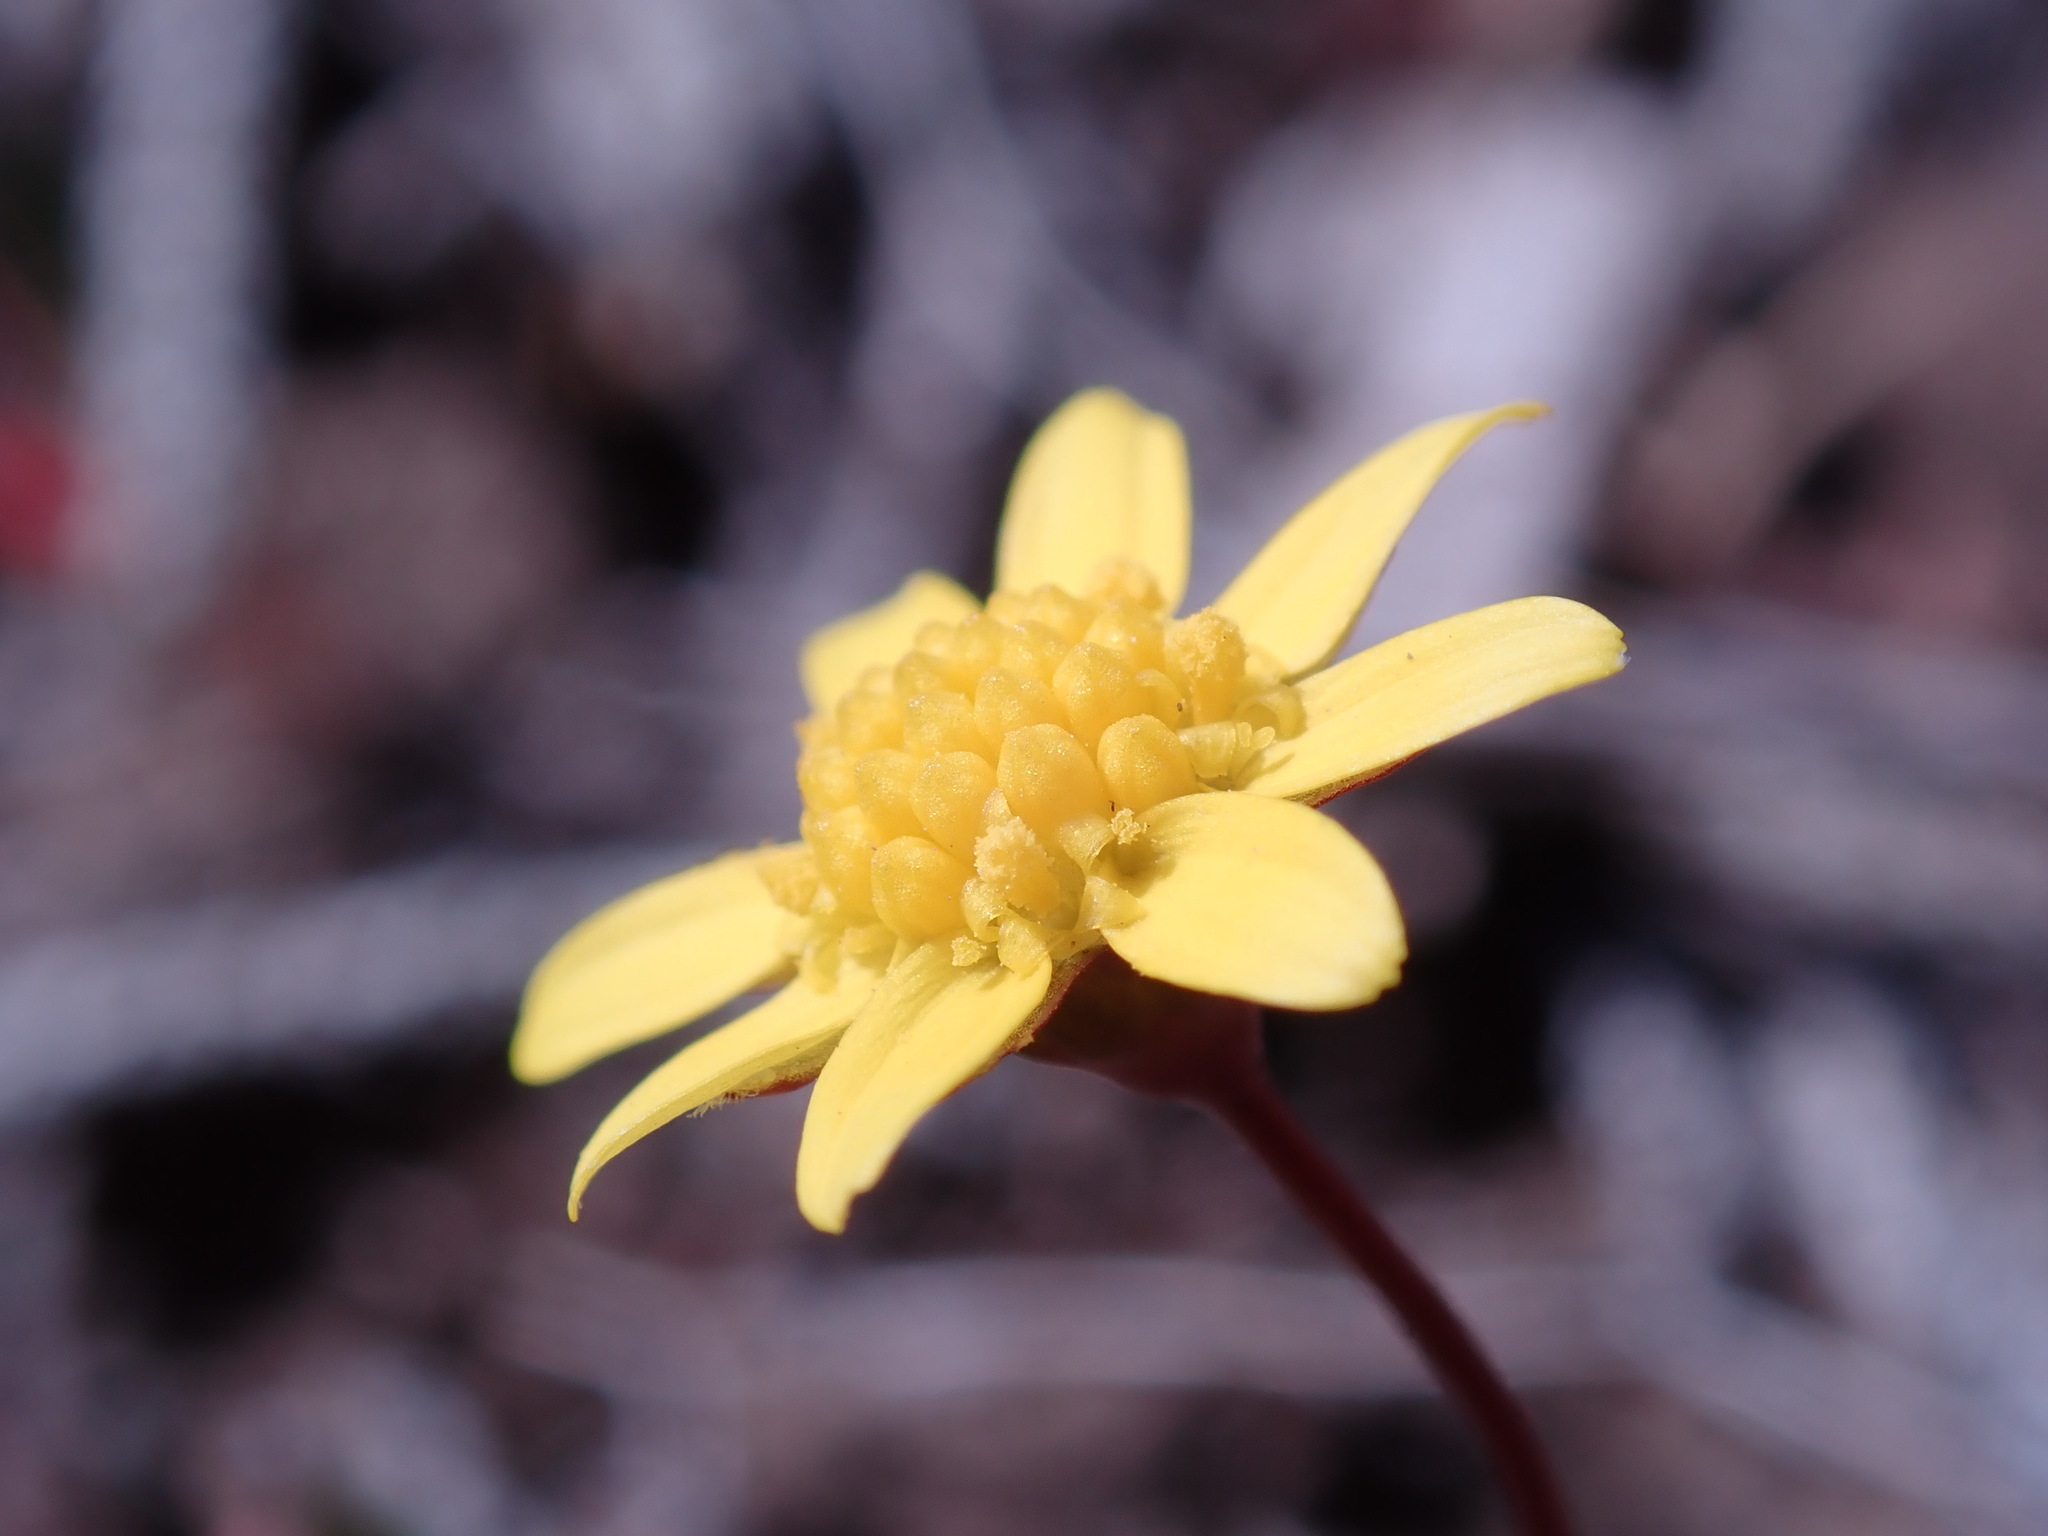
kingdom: Plantae
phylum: Tracheophyta
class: Magnoliopsida
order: Asterales
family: Asteraceae
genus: Crocidium
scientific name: Crocidium multicaule
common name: Common spring gold
